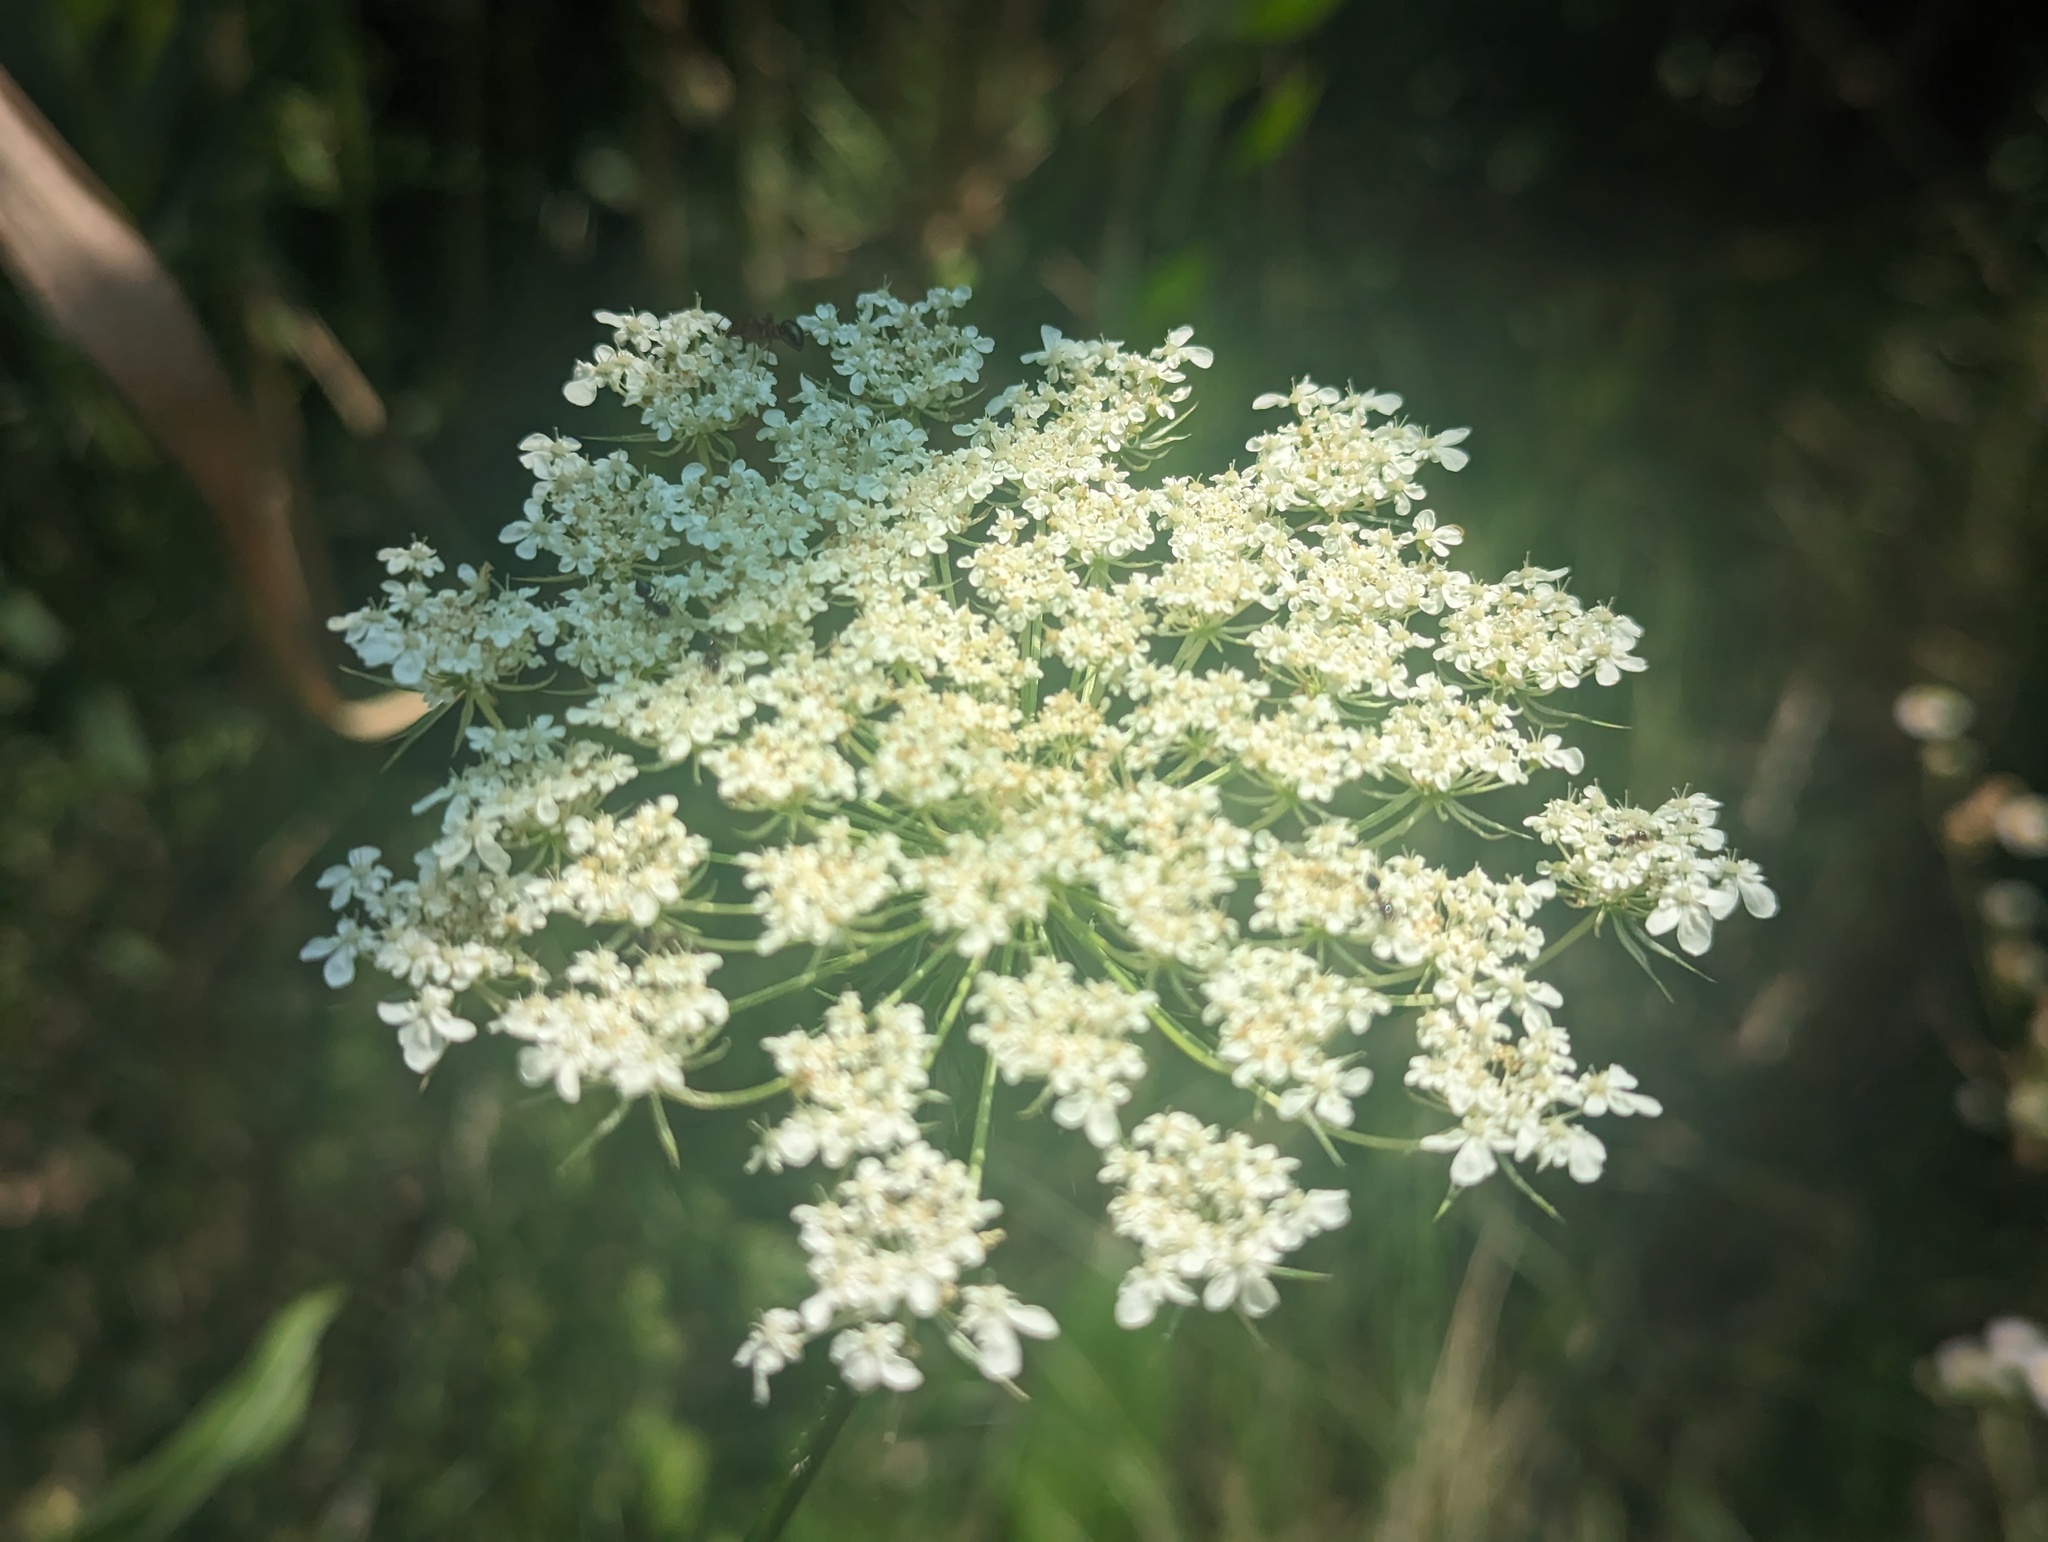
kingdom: Plantae
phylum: Tracheophyta
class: Magnoliopsida
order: Apiales
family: Apiaceae
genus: Daucus
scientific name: Daucus carota
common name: Wild carrot
